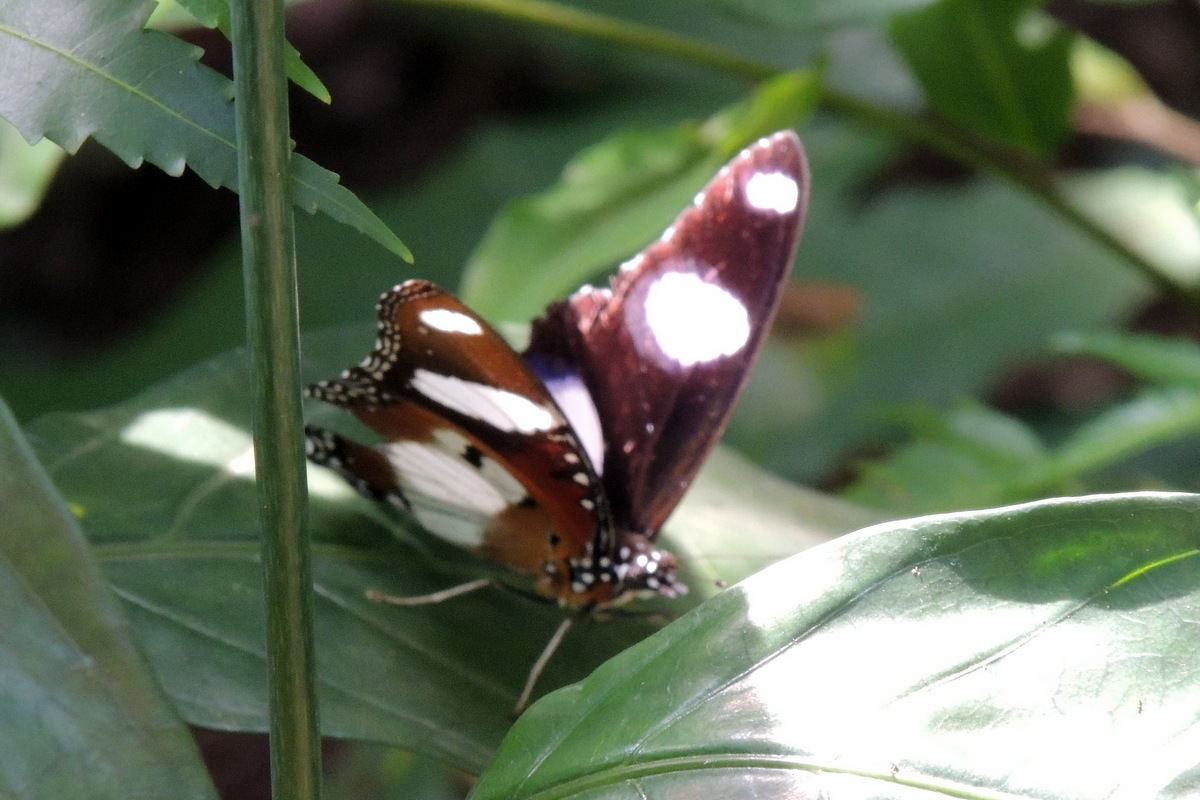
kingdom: Animalia
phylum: Arthropoda
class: Insecta
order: Lepidoptera
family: Nymphalidae
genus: Hypolimnas
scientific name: Hypolimnas misippus
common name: False plain tiger
